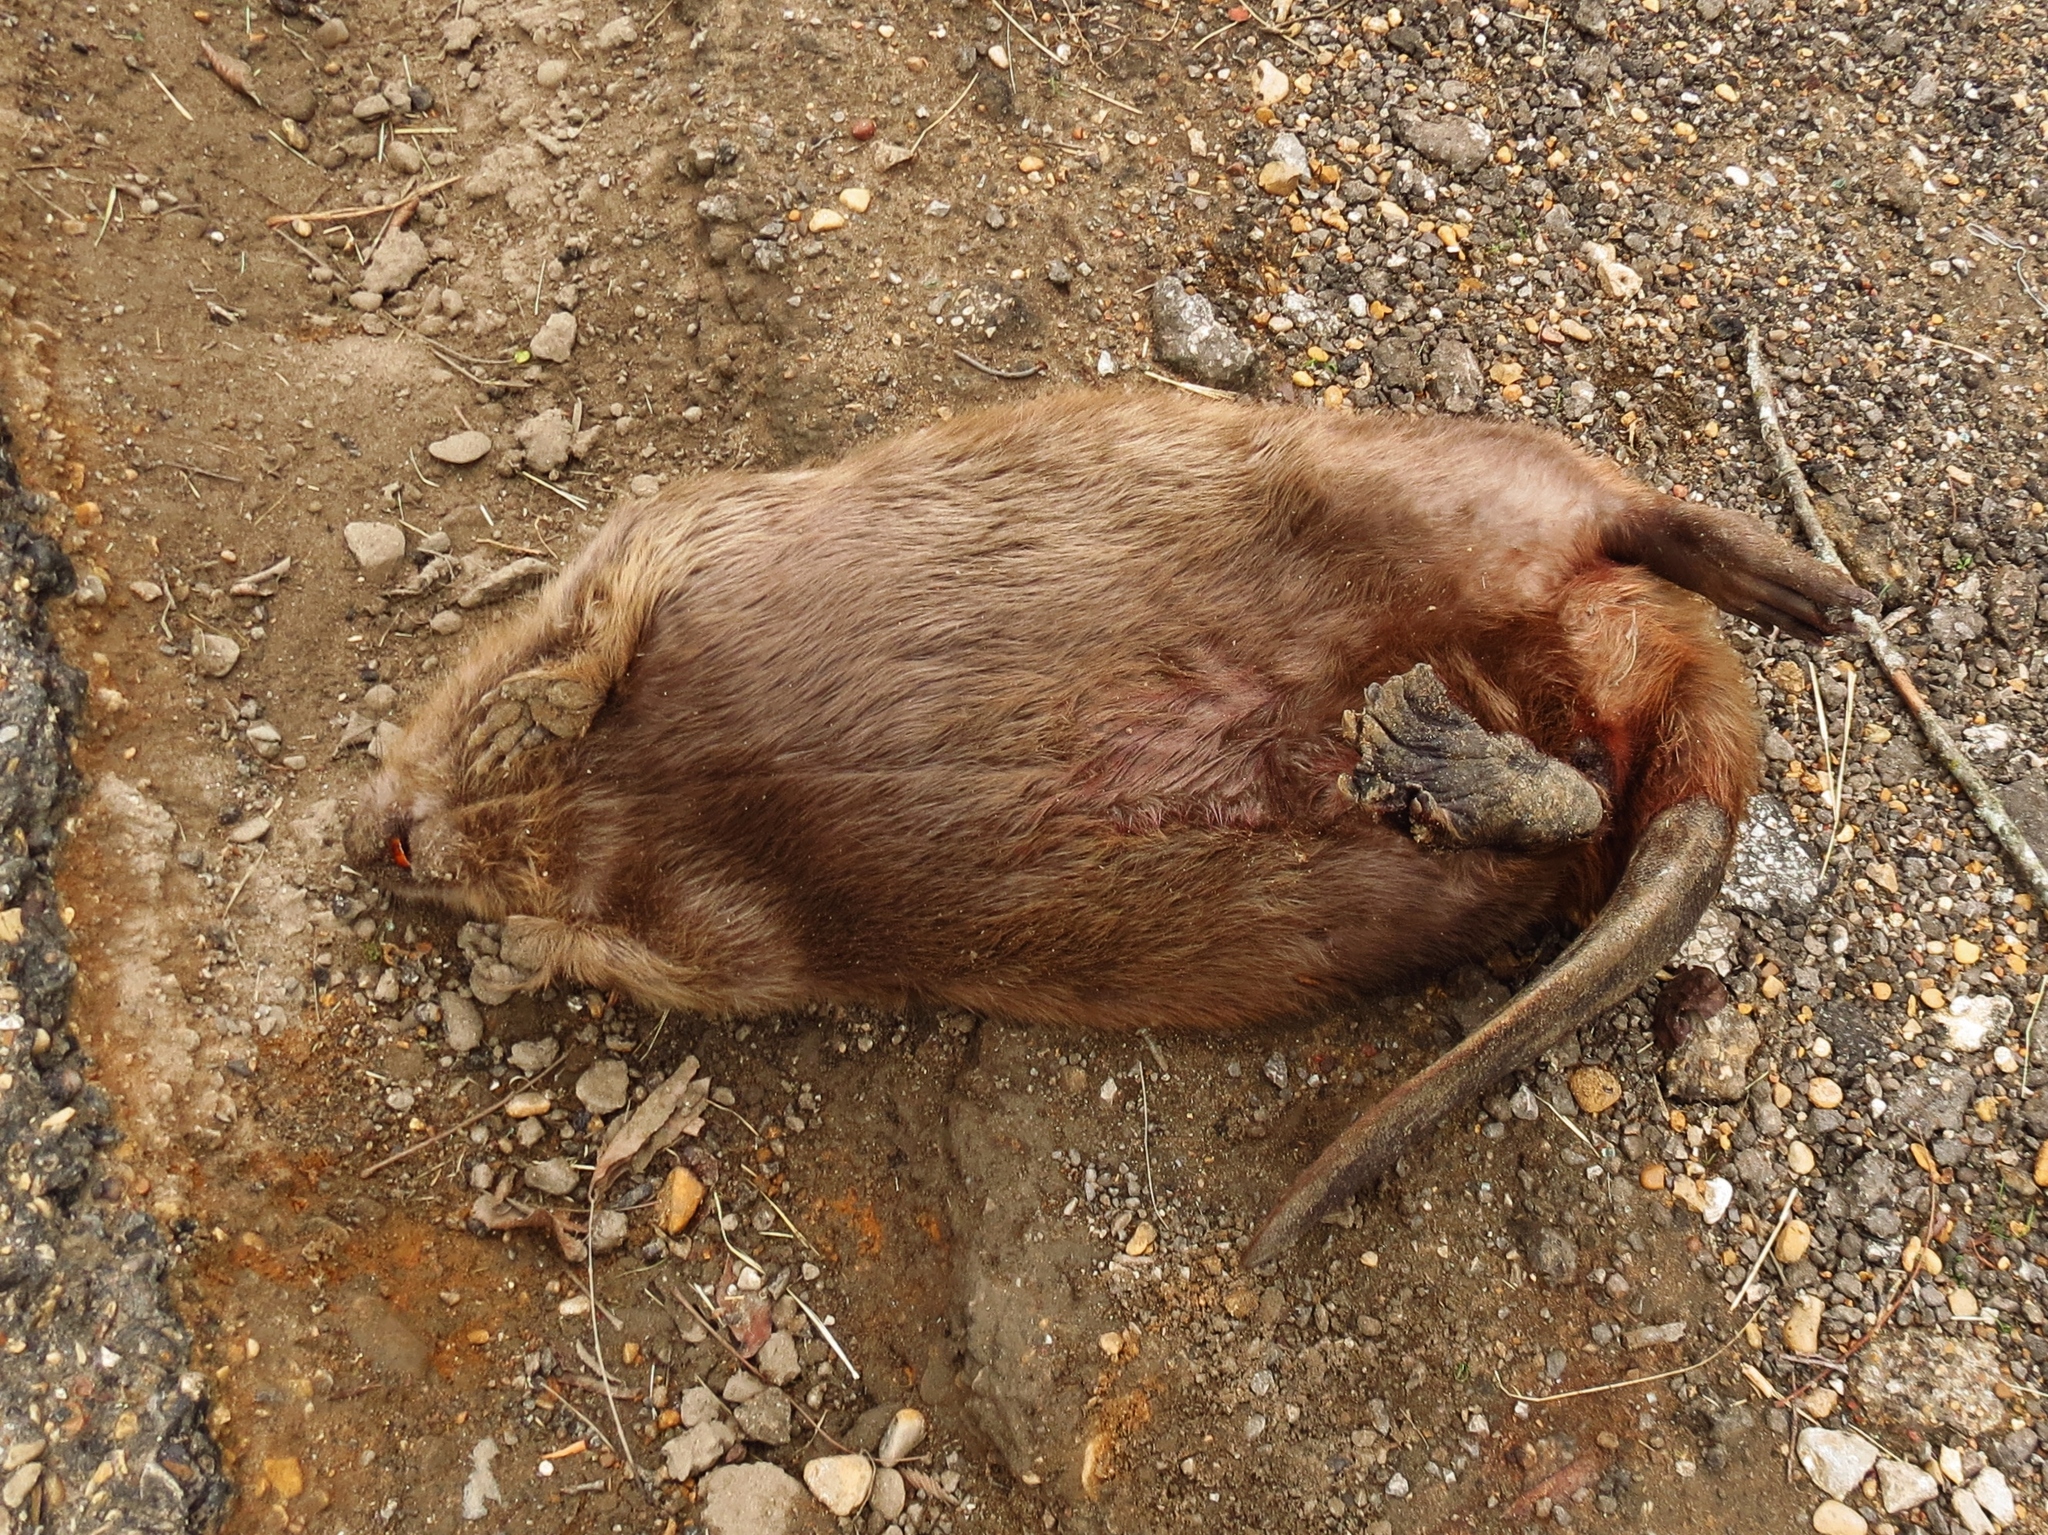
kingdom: Animalia
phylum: Chordata
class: Mammalia
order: Rodentia
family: Castoridae
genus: Castor
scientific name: Castor canadensis
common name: American beaver
